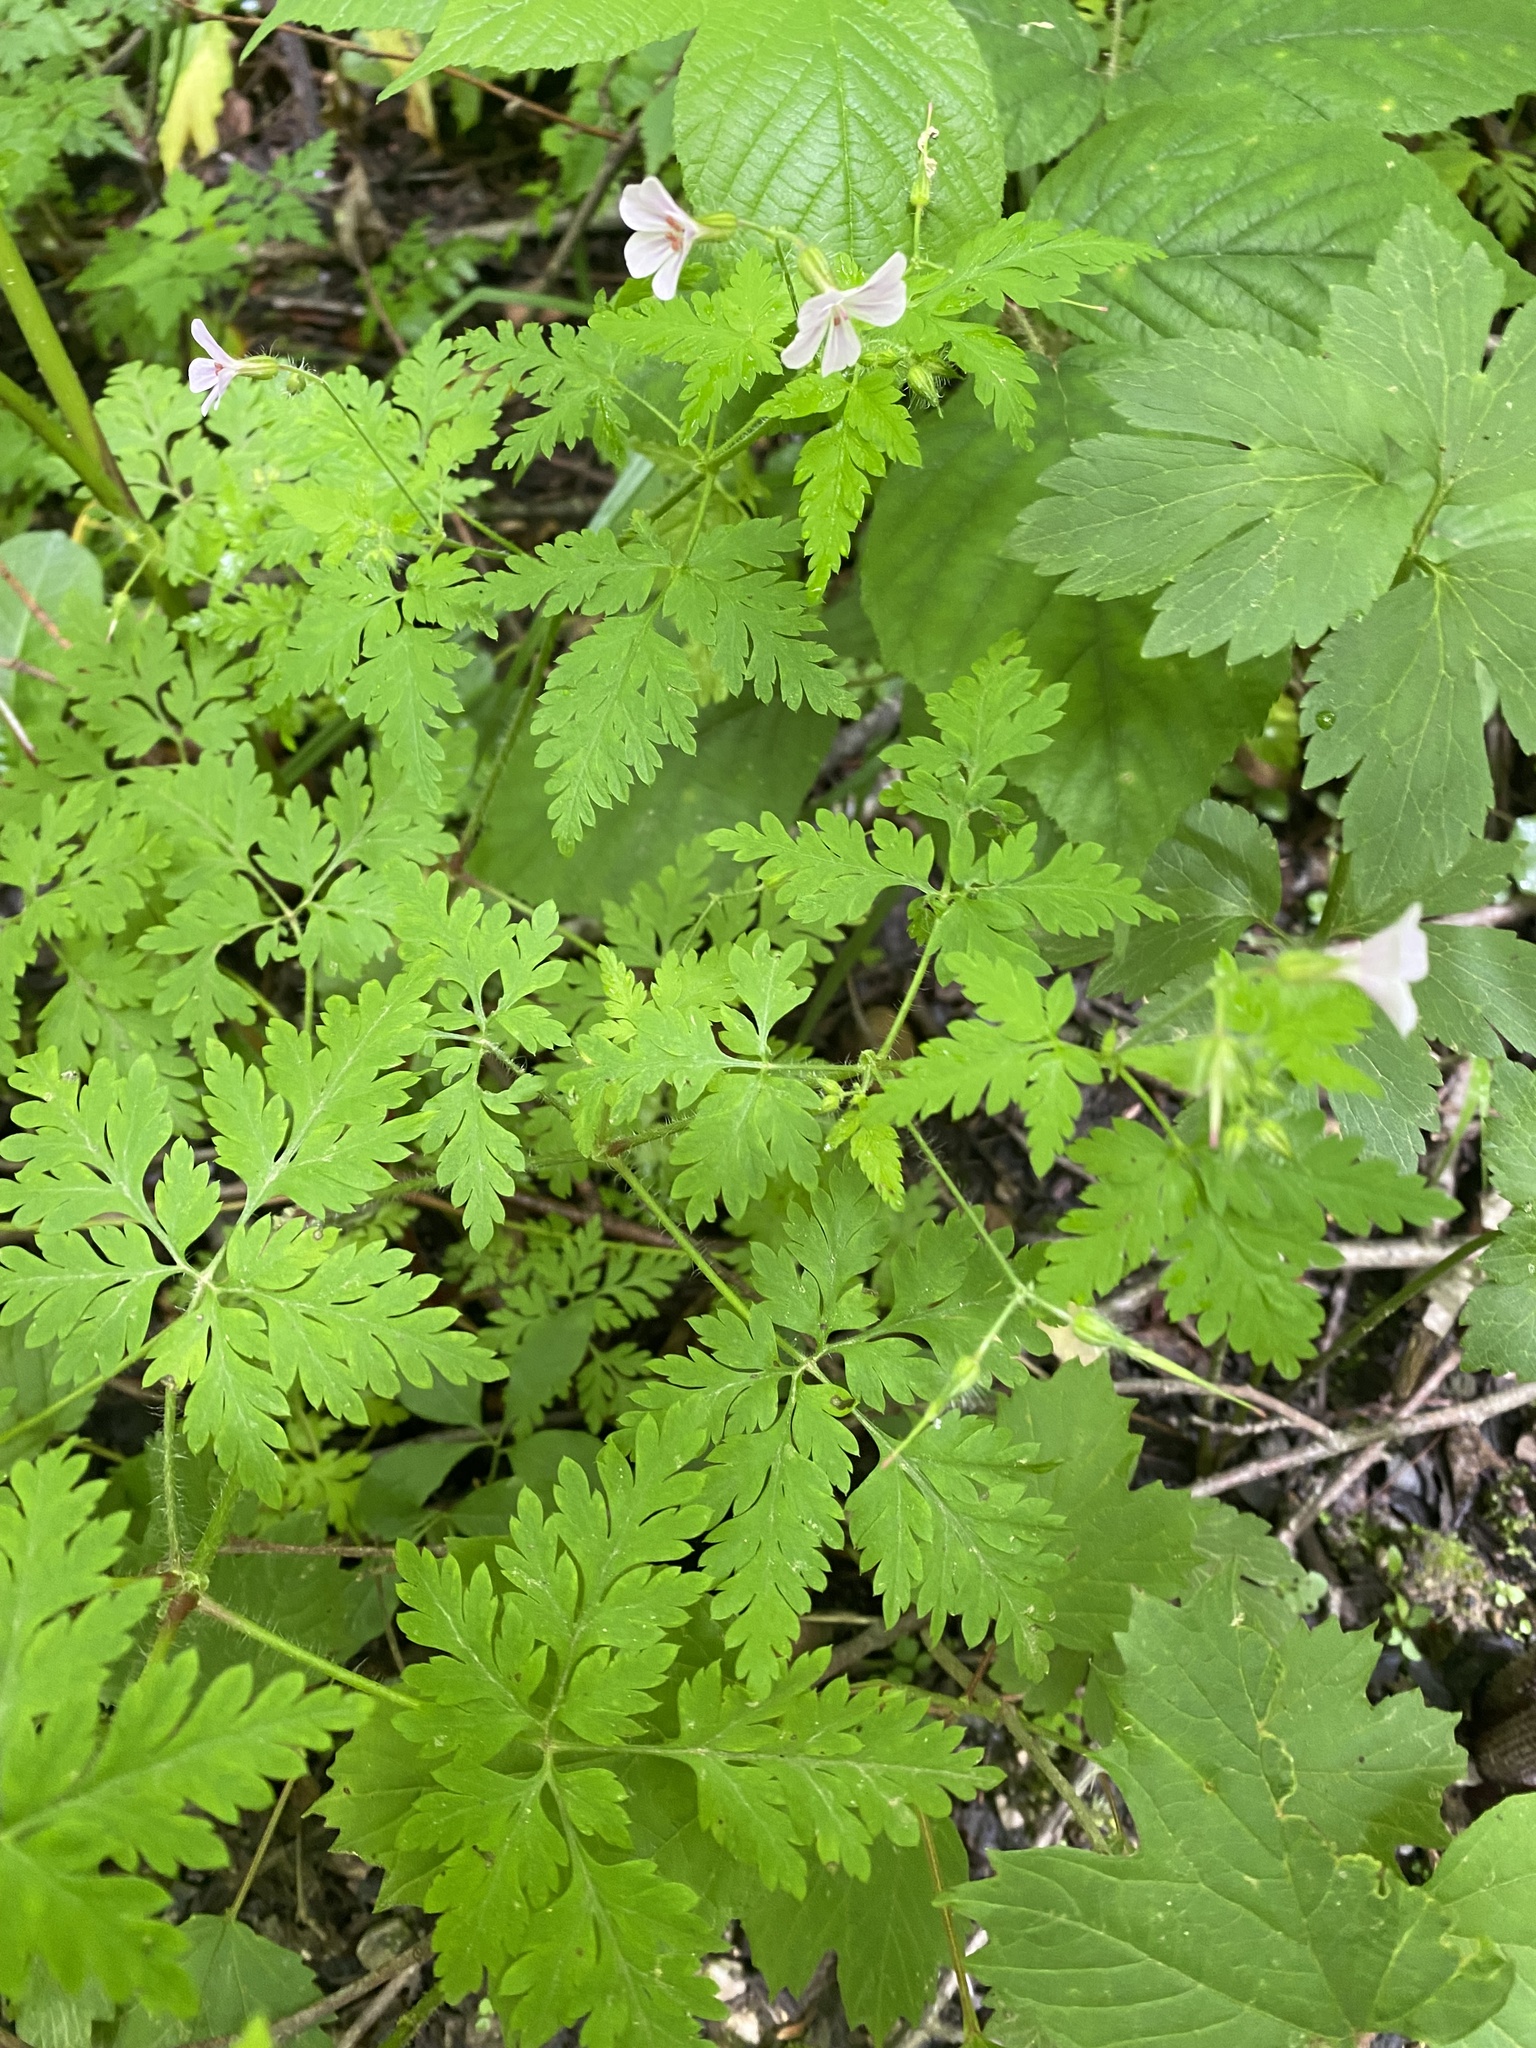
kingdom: Plantae
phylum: Tracheophyta
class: Magnoliopsida
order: Geraniales
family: Geraniaceae
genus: Geranium
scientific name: Geranium robertianum
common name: Herb-robert
